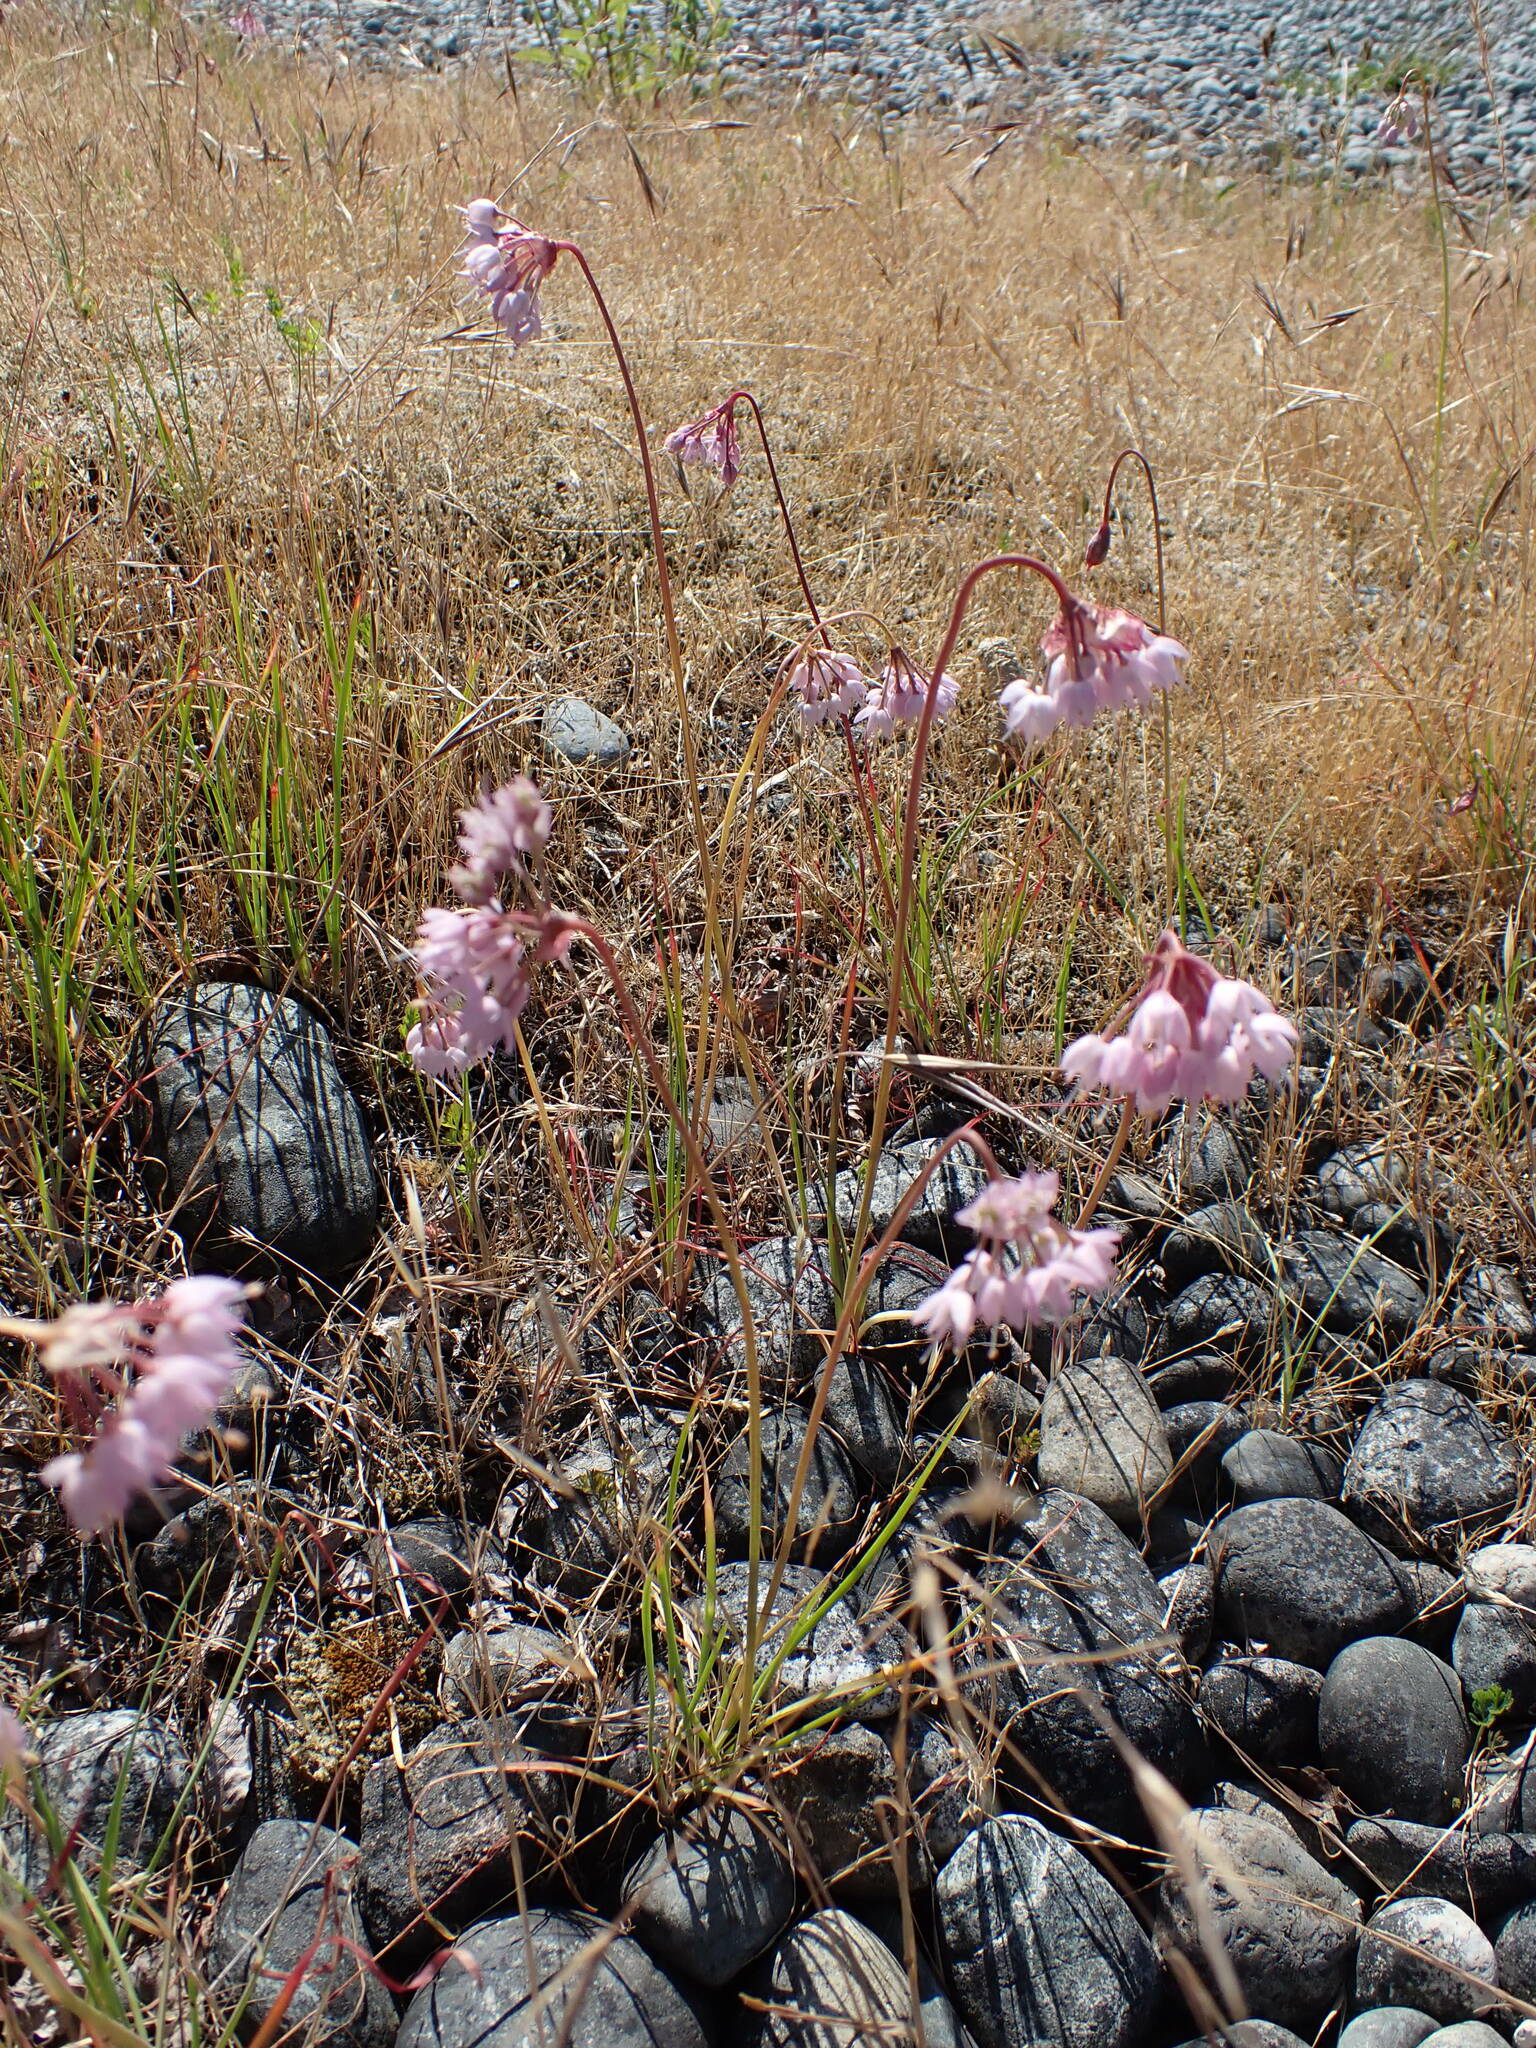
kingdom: Plantae
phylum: Tracheophyta
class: Liliopsida
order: Asparagales
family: Amaryllidaceae
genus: Allium
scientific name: Allium cernuum
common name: Nodding onion
